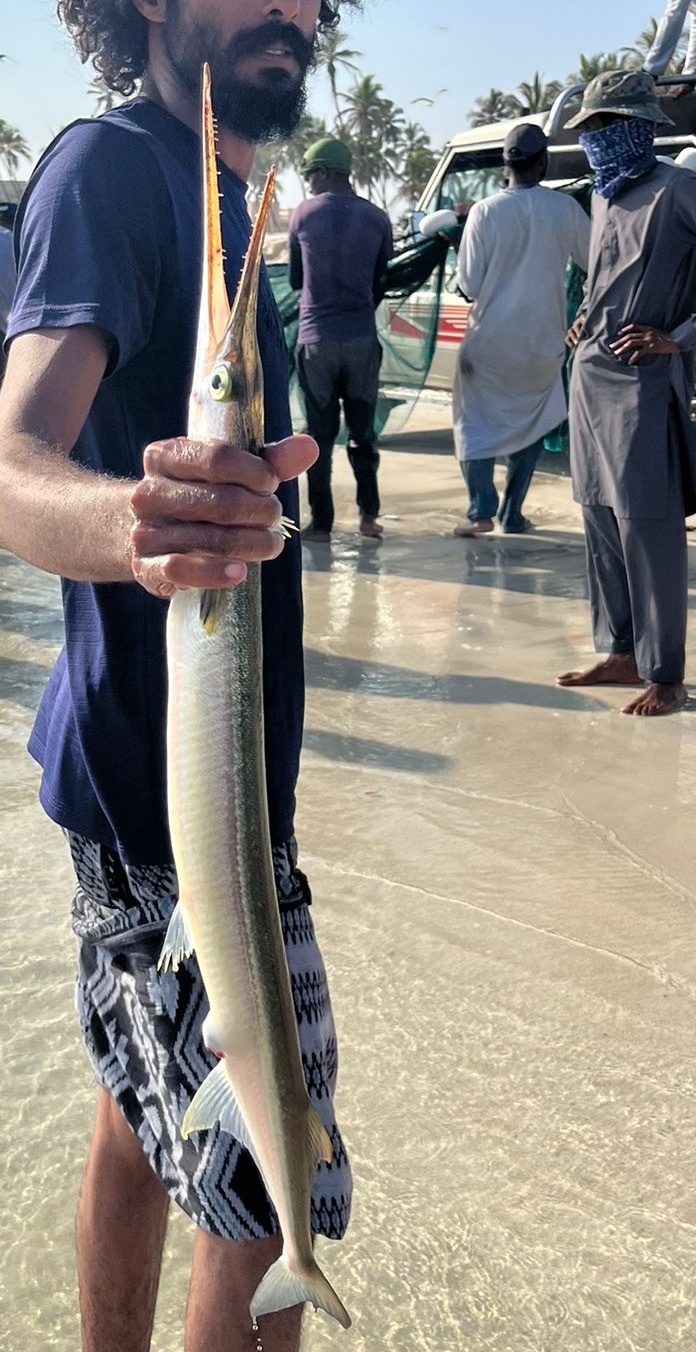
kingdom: Animalia
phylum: Chordata
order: Beloniformes
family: Belonidae
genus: Tylosurus
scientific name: Tylosurus crocodilus
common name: Houndfish
